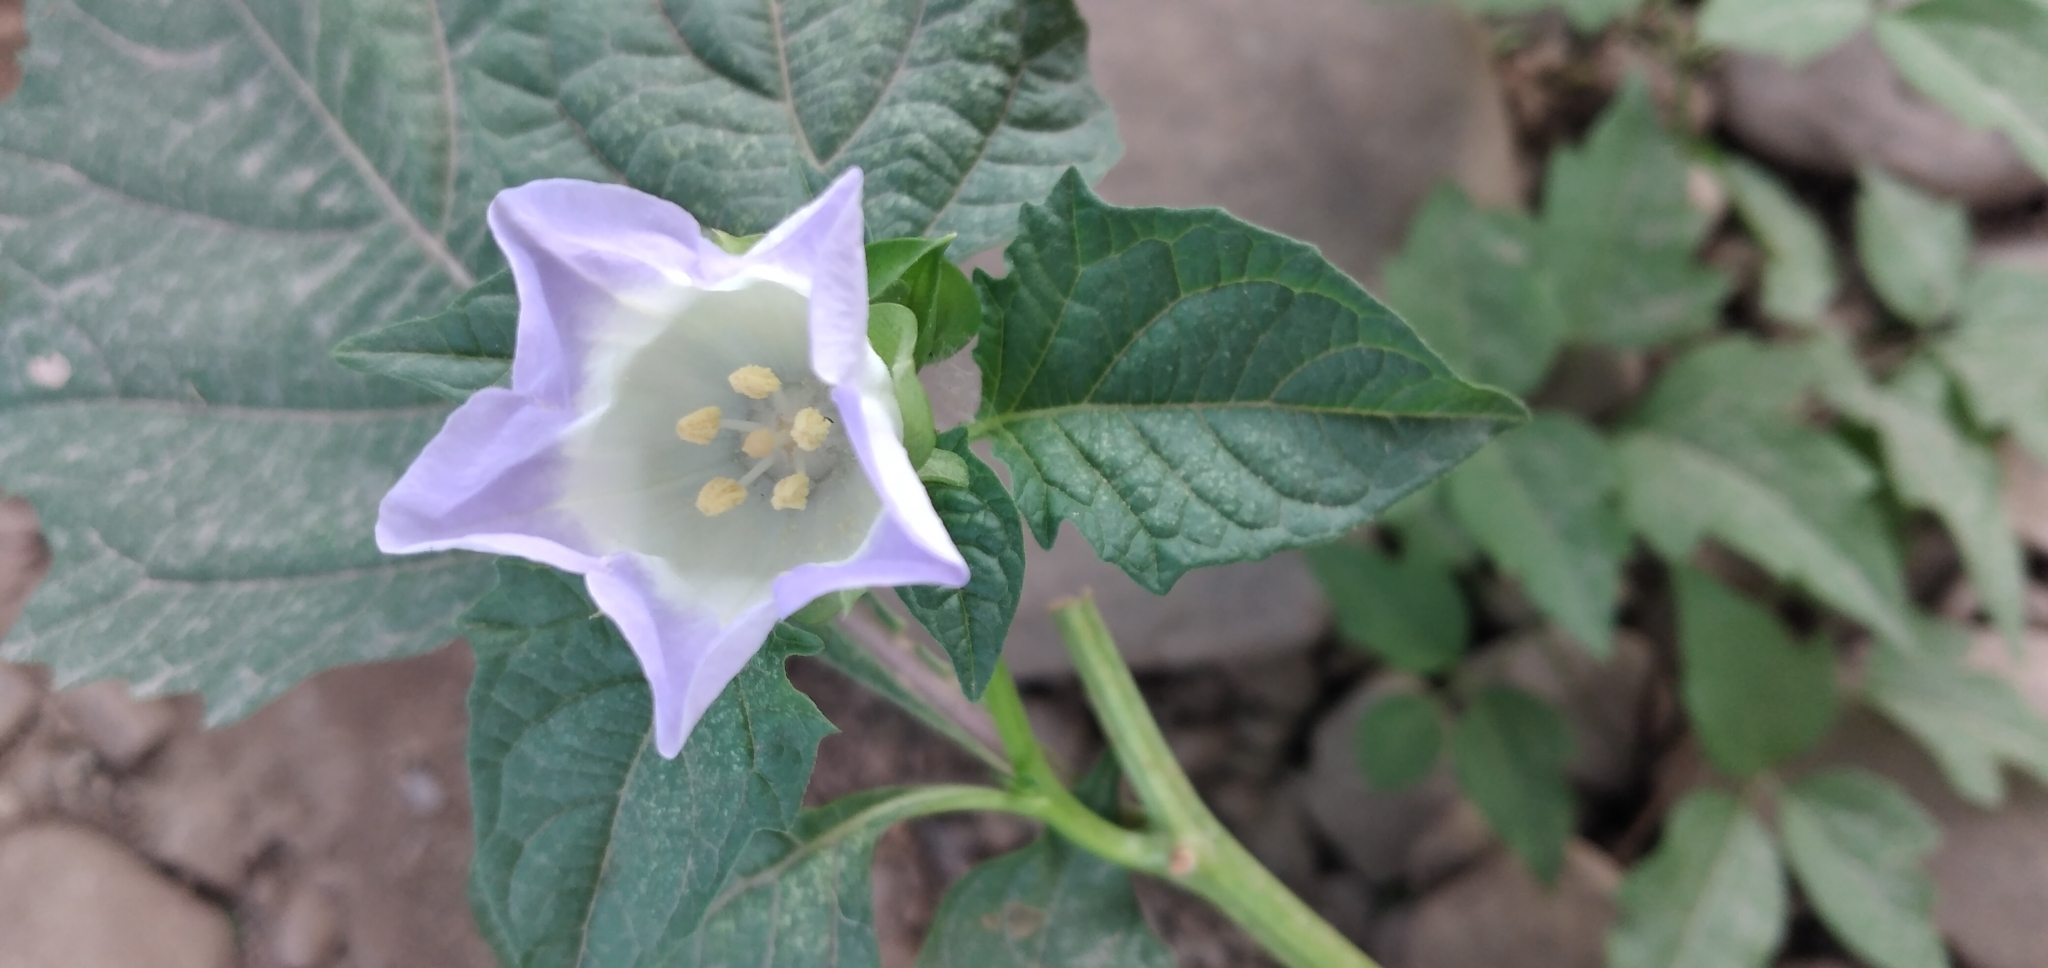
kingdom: Plantae
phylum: Tracheophyta
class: Magnoliopsida
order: Solanales
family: Solanaceae
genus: Nicandra
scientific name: Nicandra physalodes
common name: Apple-of-peru
